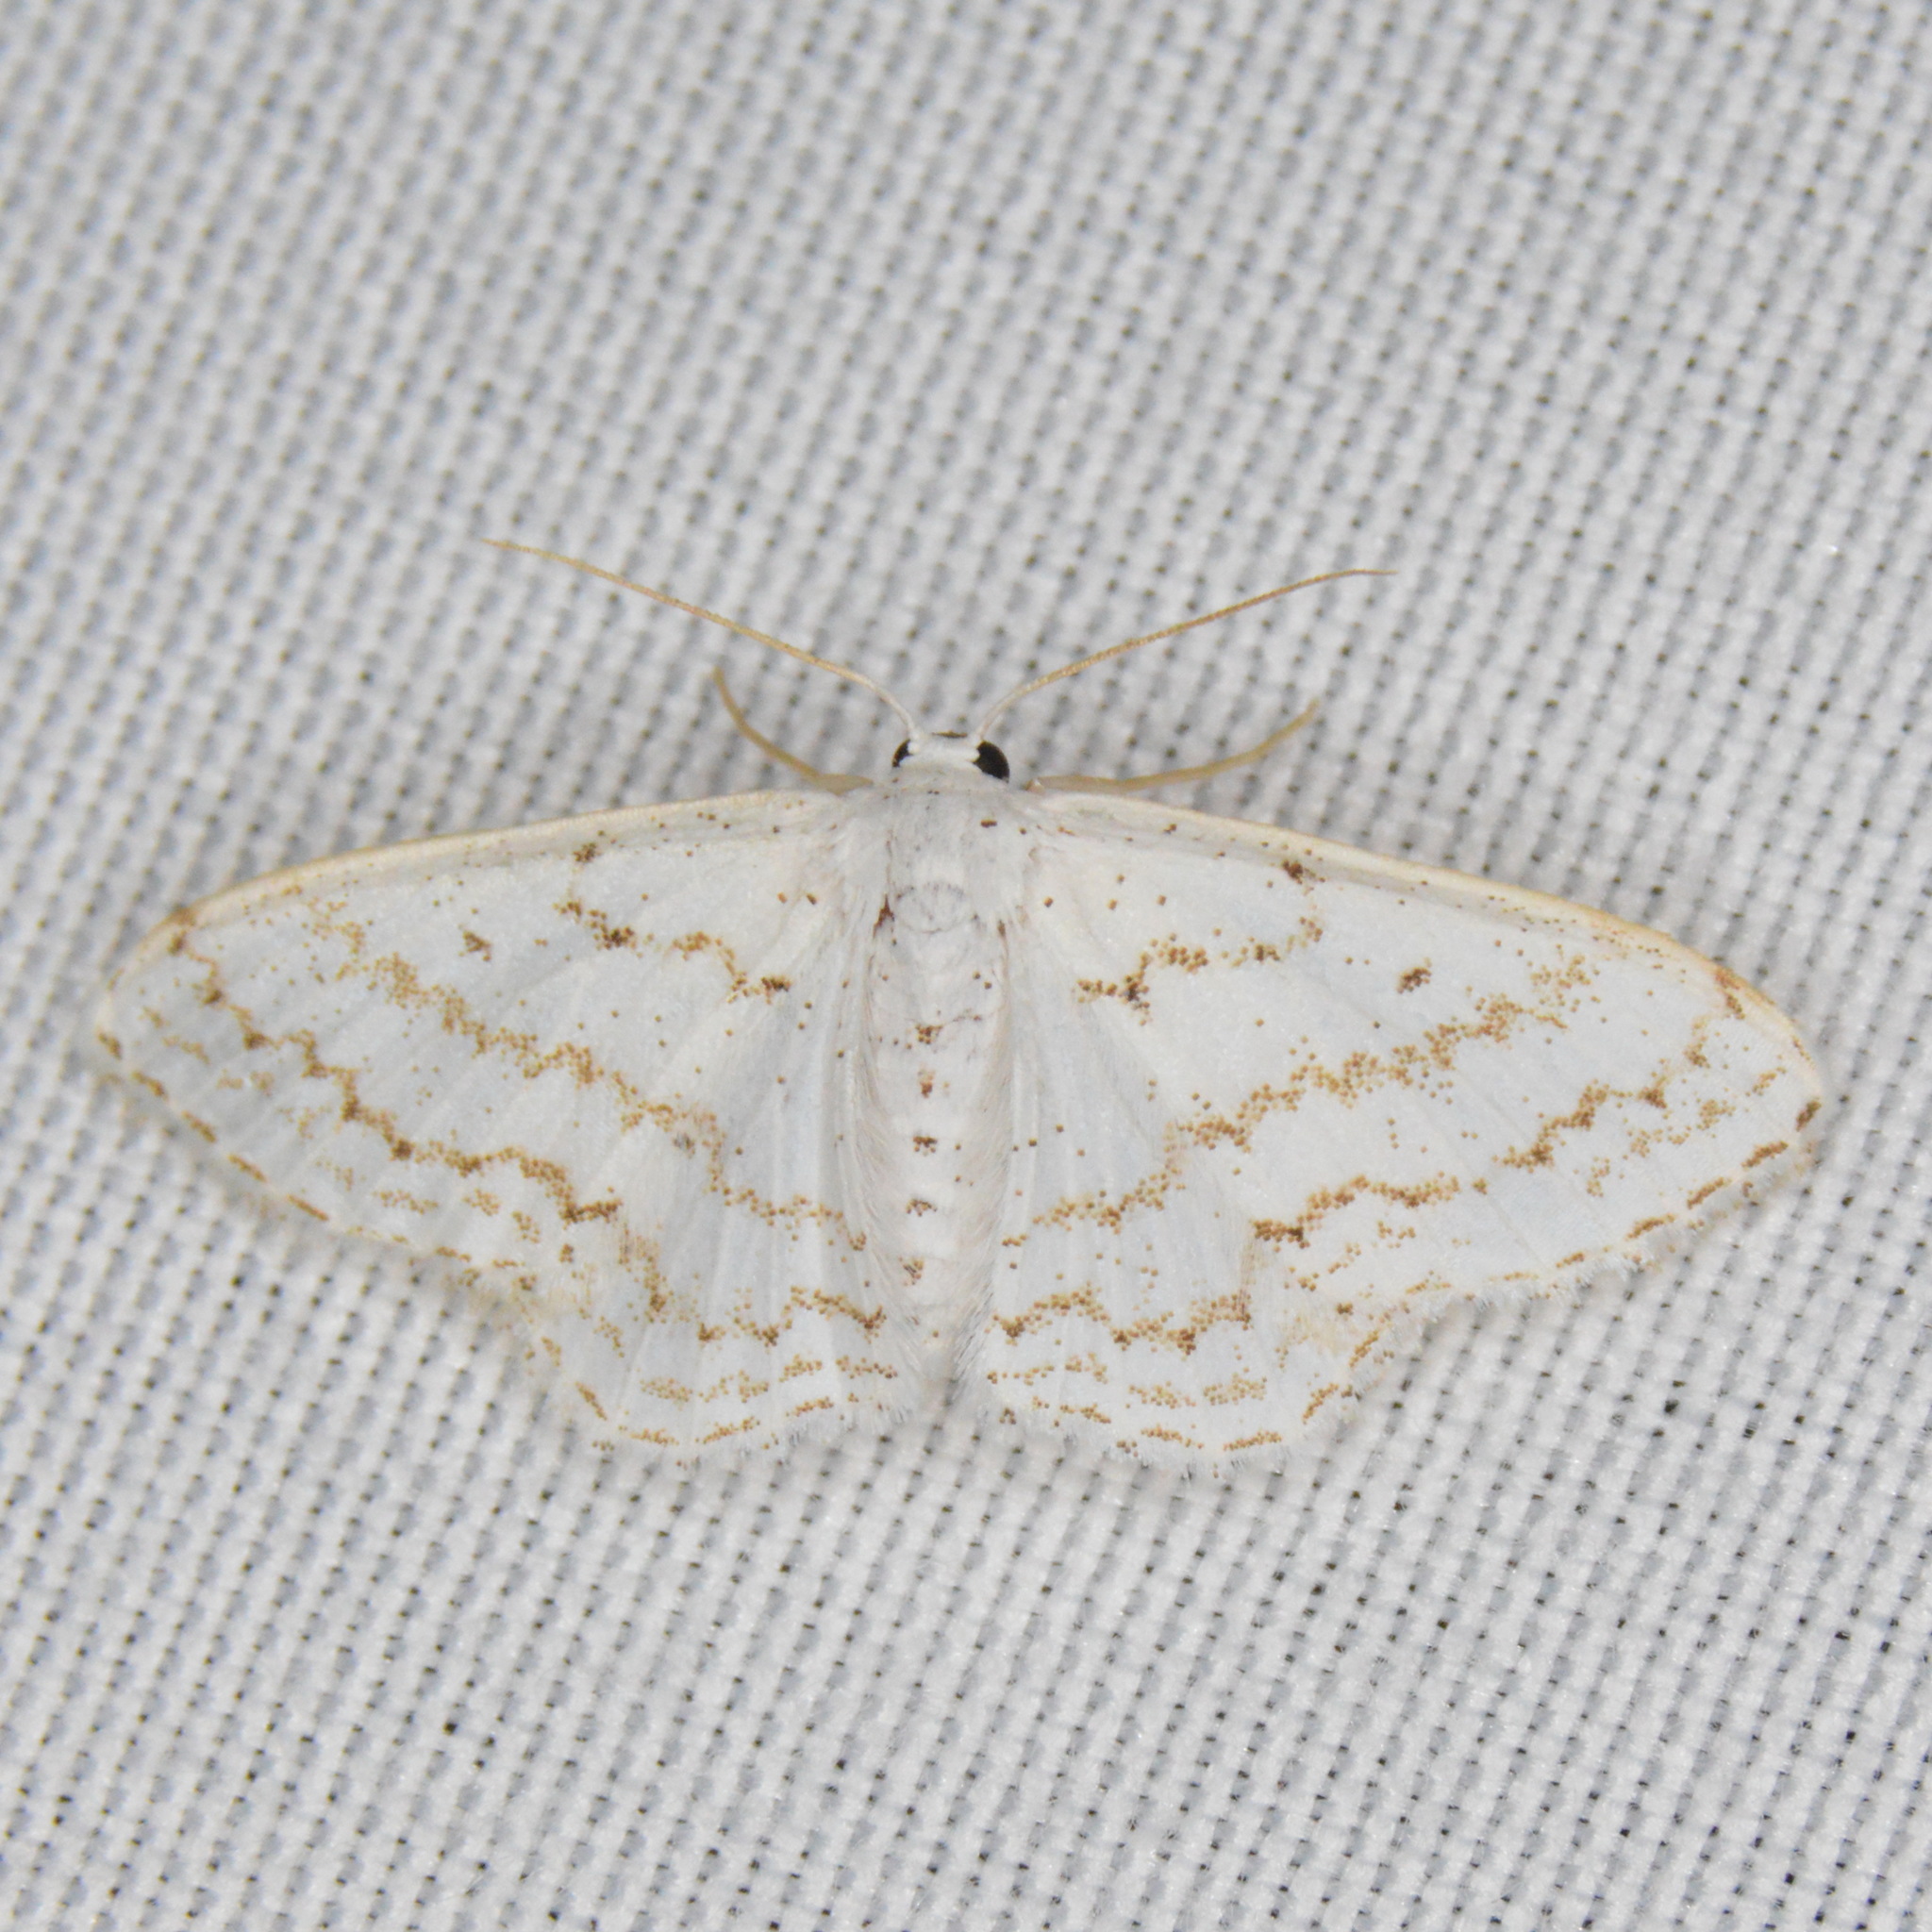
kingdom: Animalia
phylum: Arthropoda
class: Insecta
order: Lepidoptera
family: Geometridae
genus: Idaea
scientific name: Idaea tacturata
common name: Dot-lined wave
